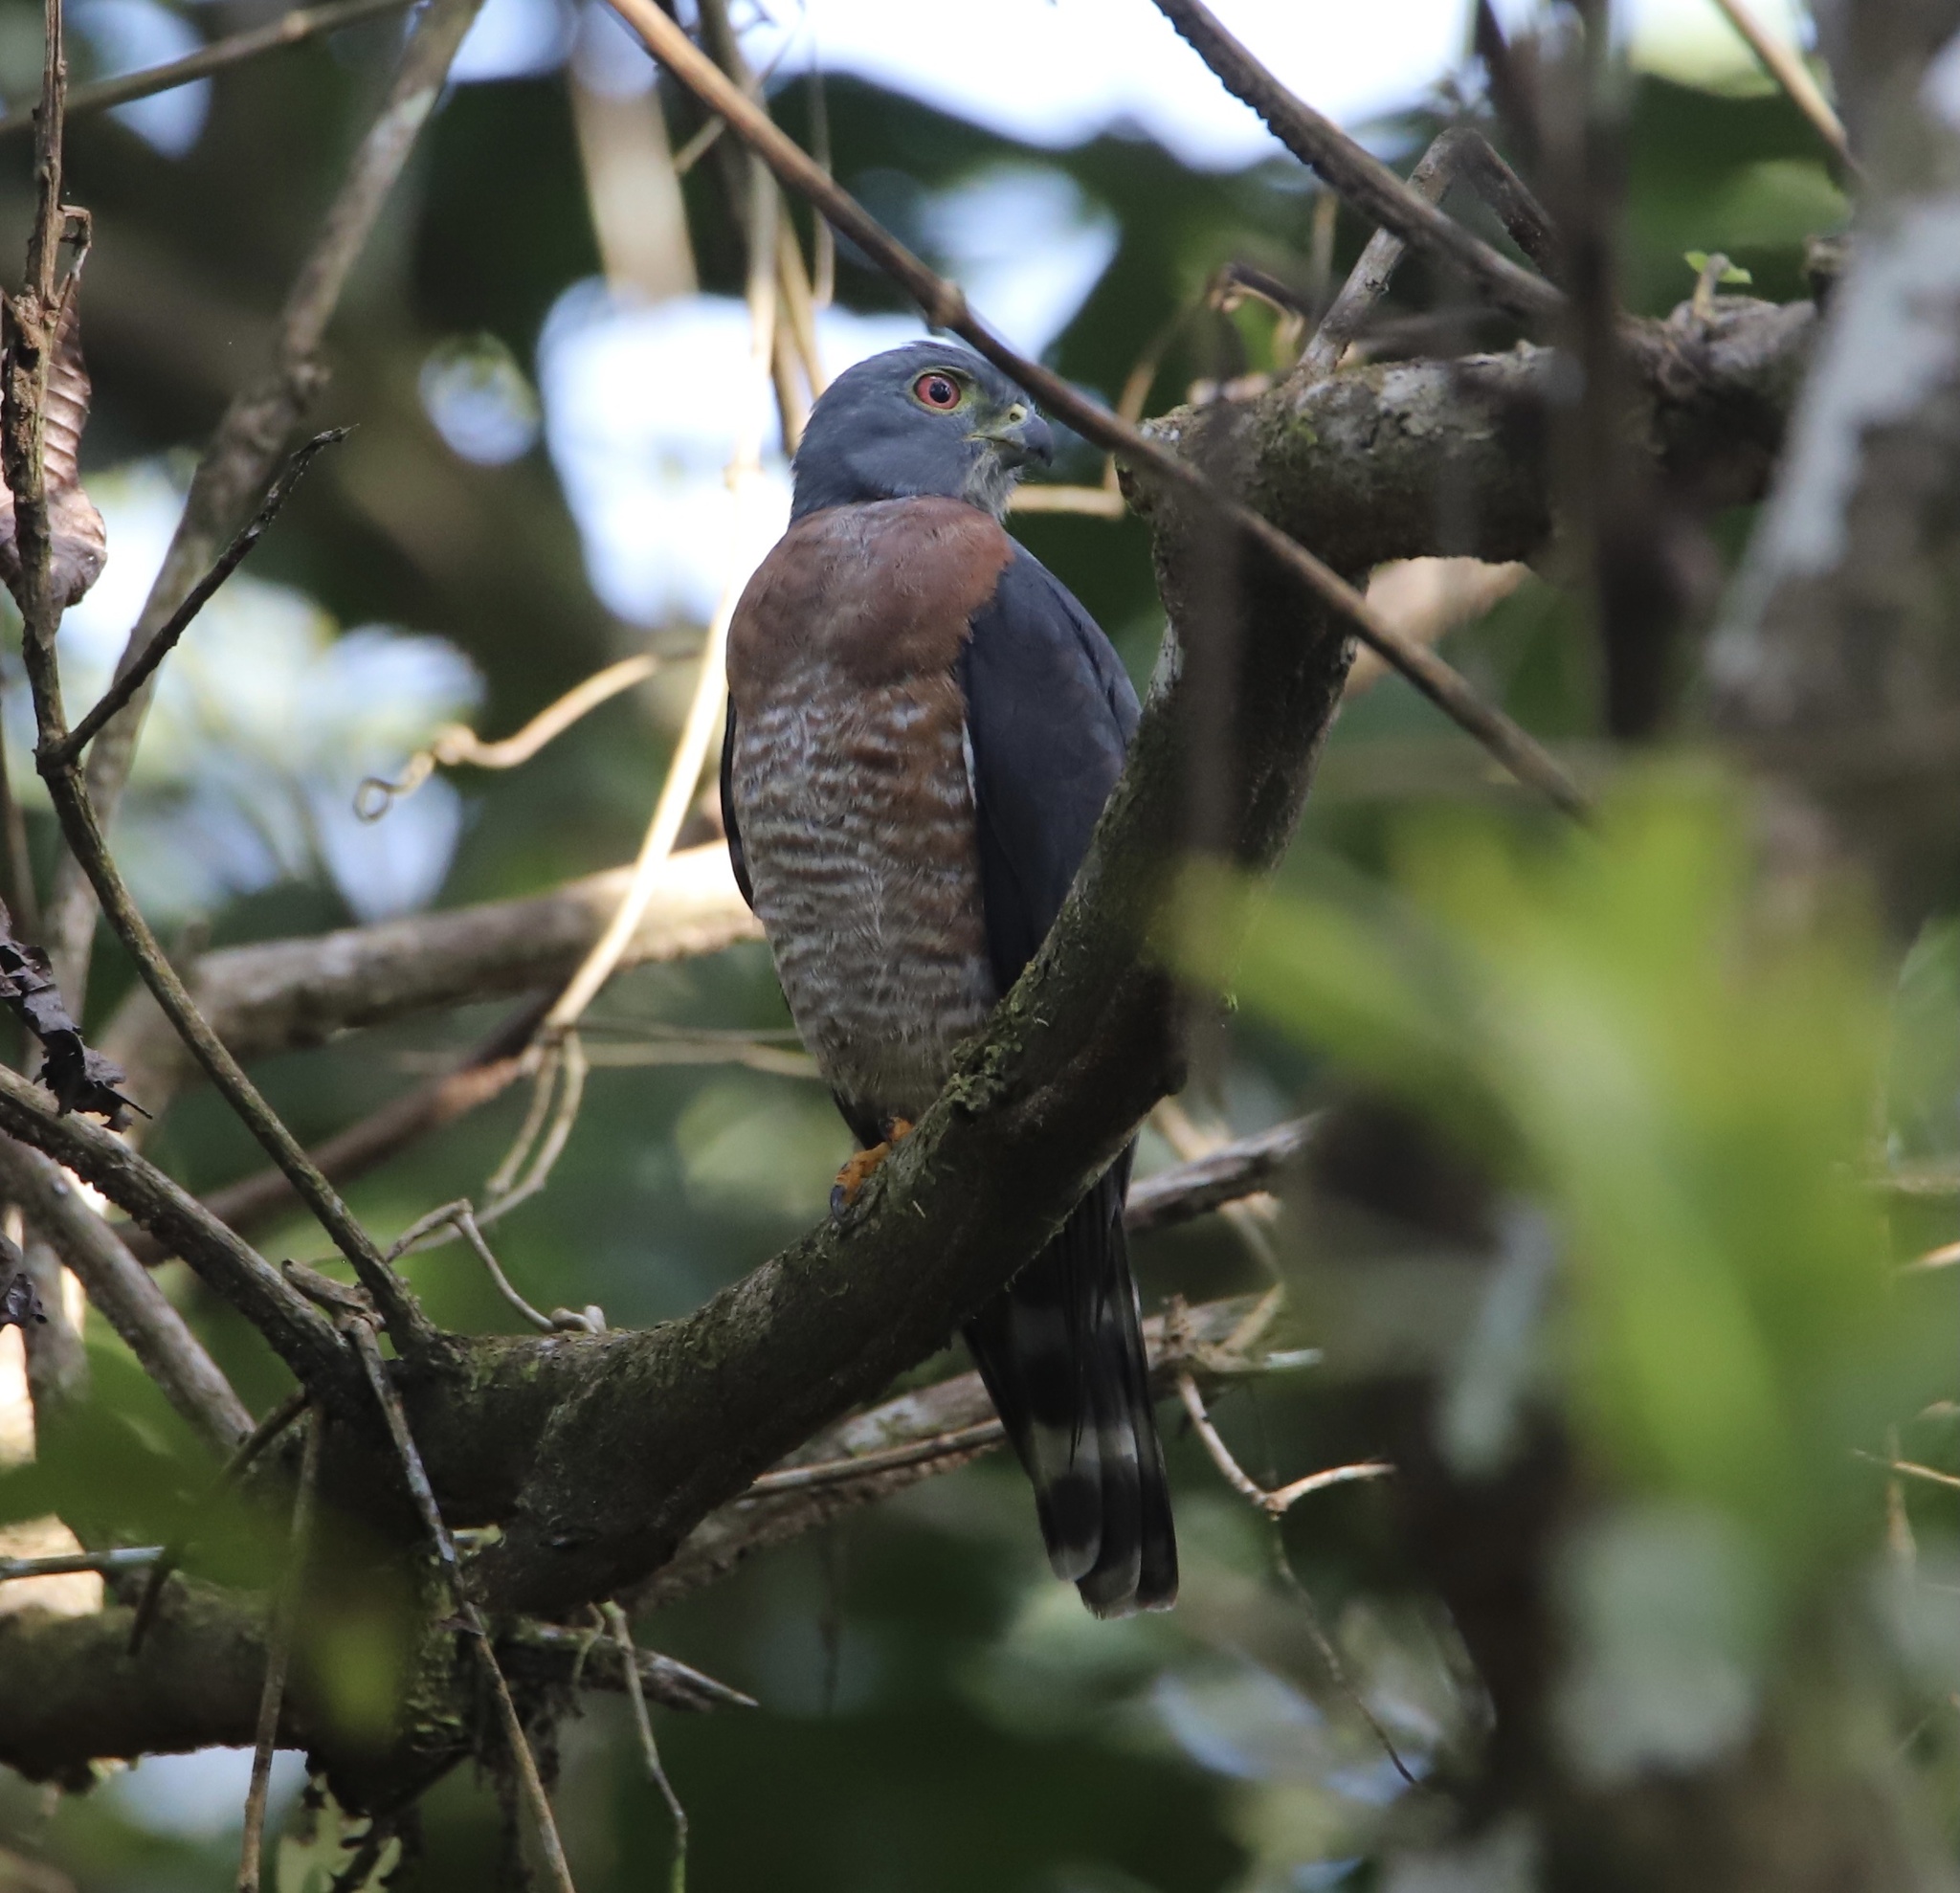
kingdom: Animalia
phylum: Chordata
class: Aves
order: Accipitriformes
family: Accipitridae
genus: Harpagus
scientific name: Harpagus bidentatus
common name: Double-toothed kite
